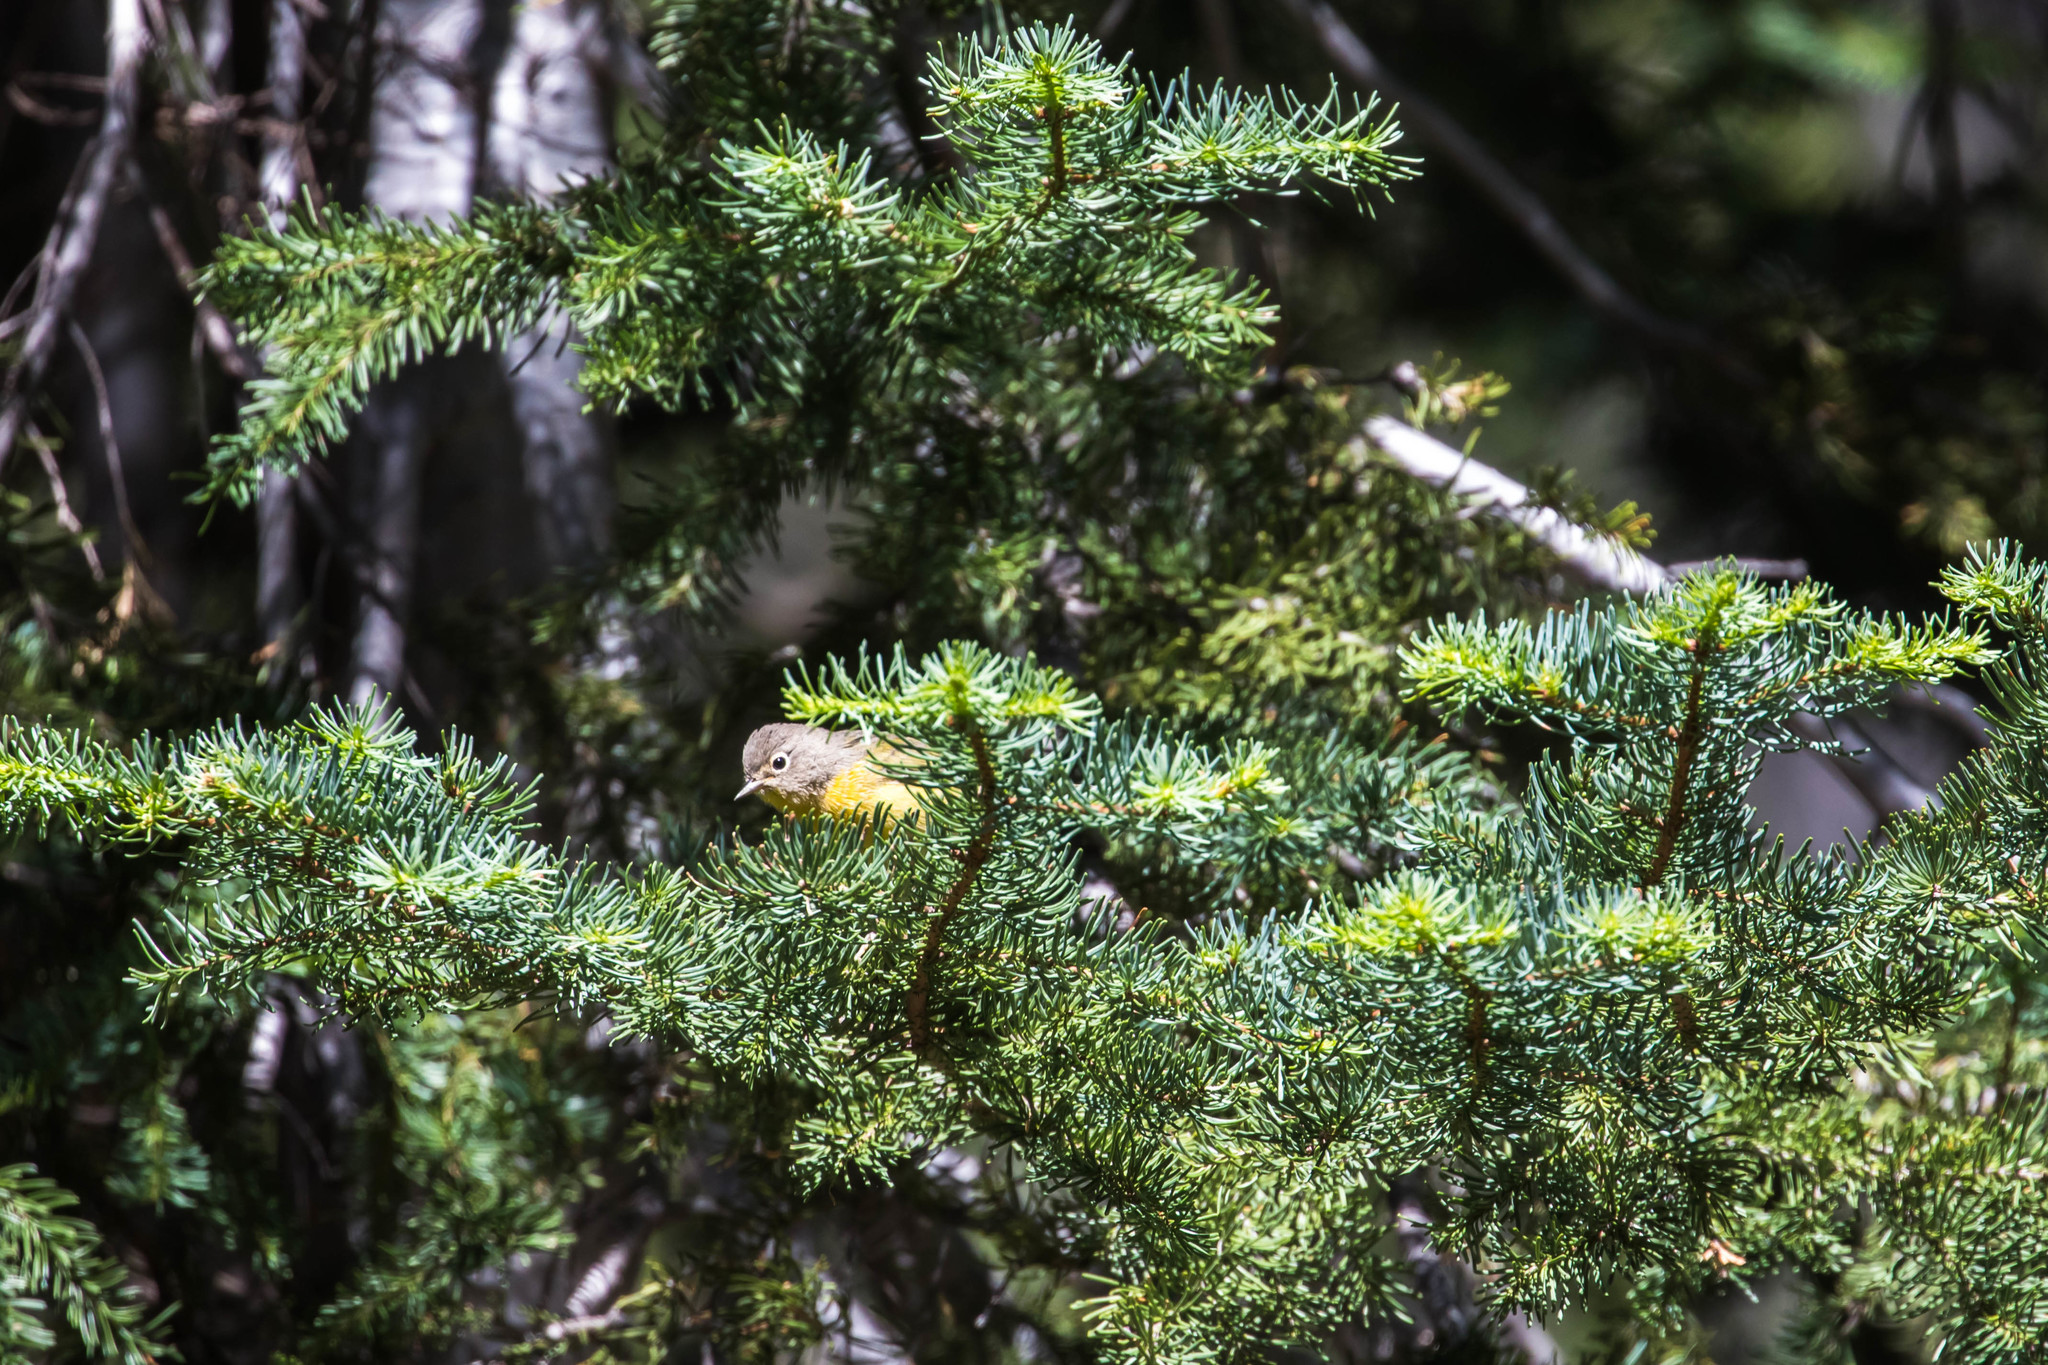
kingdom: Animalia
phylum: Chordata
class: Aves
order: Passeriformes
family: Parulidae
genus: Leiothlypis
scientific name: Leiothlypis ruficapilla
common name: Nashville warbler
